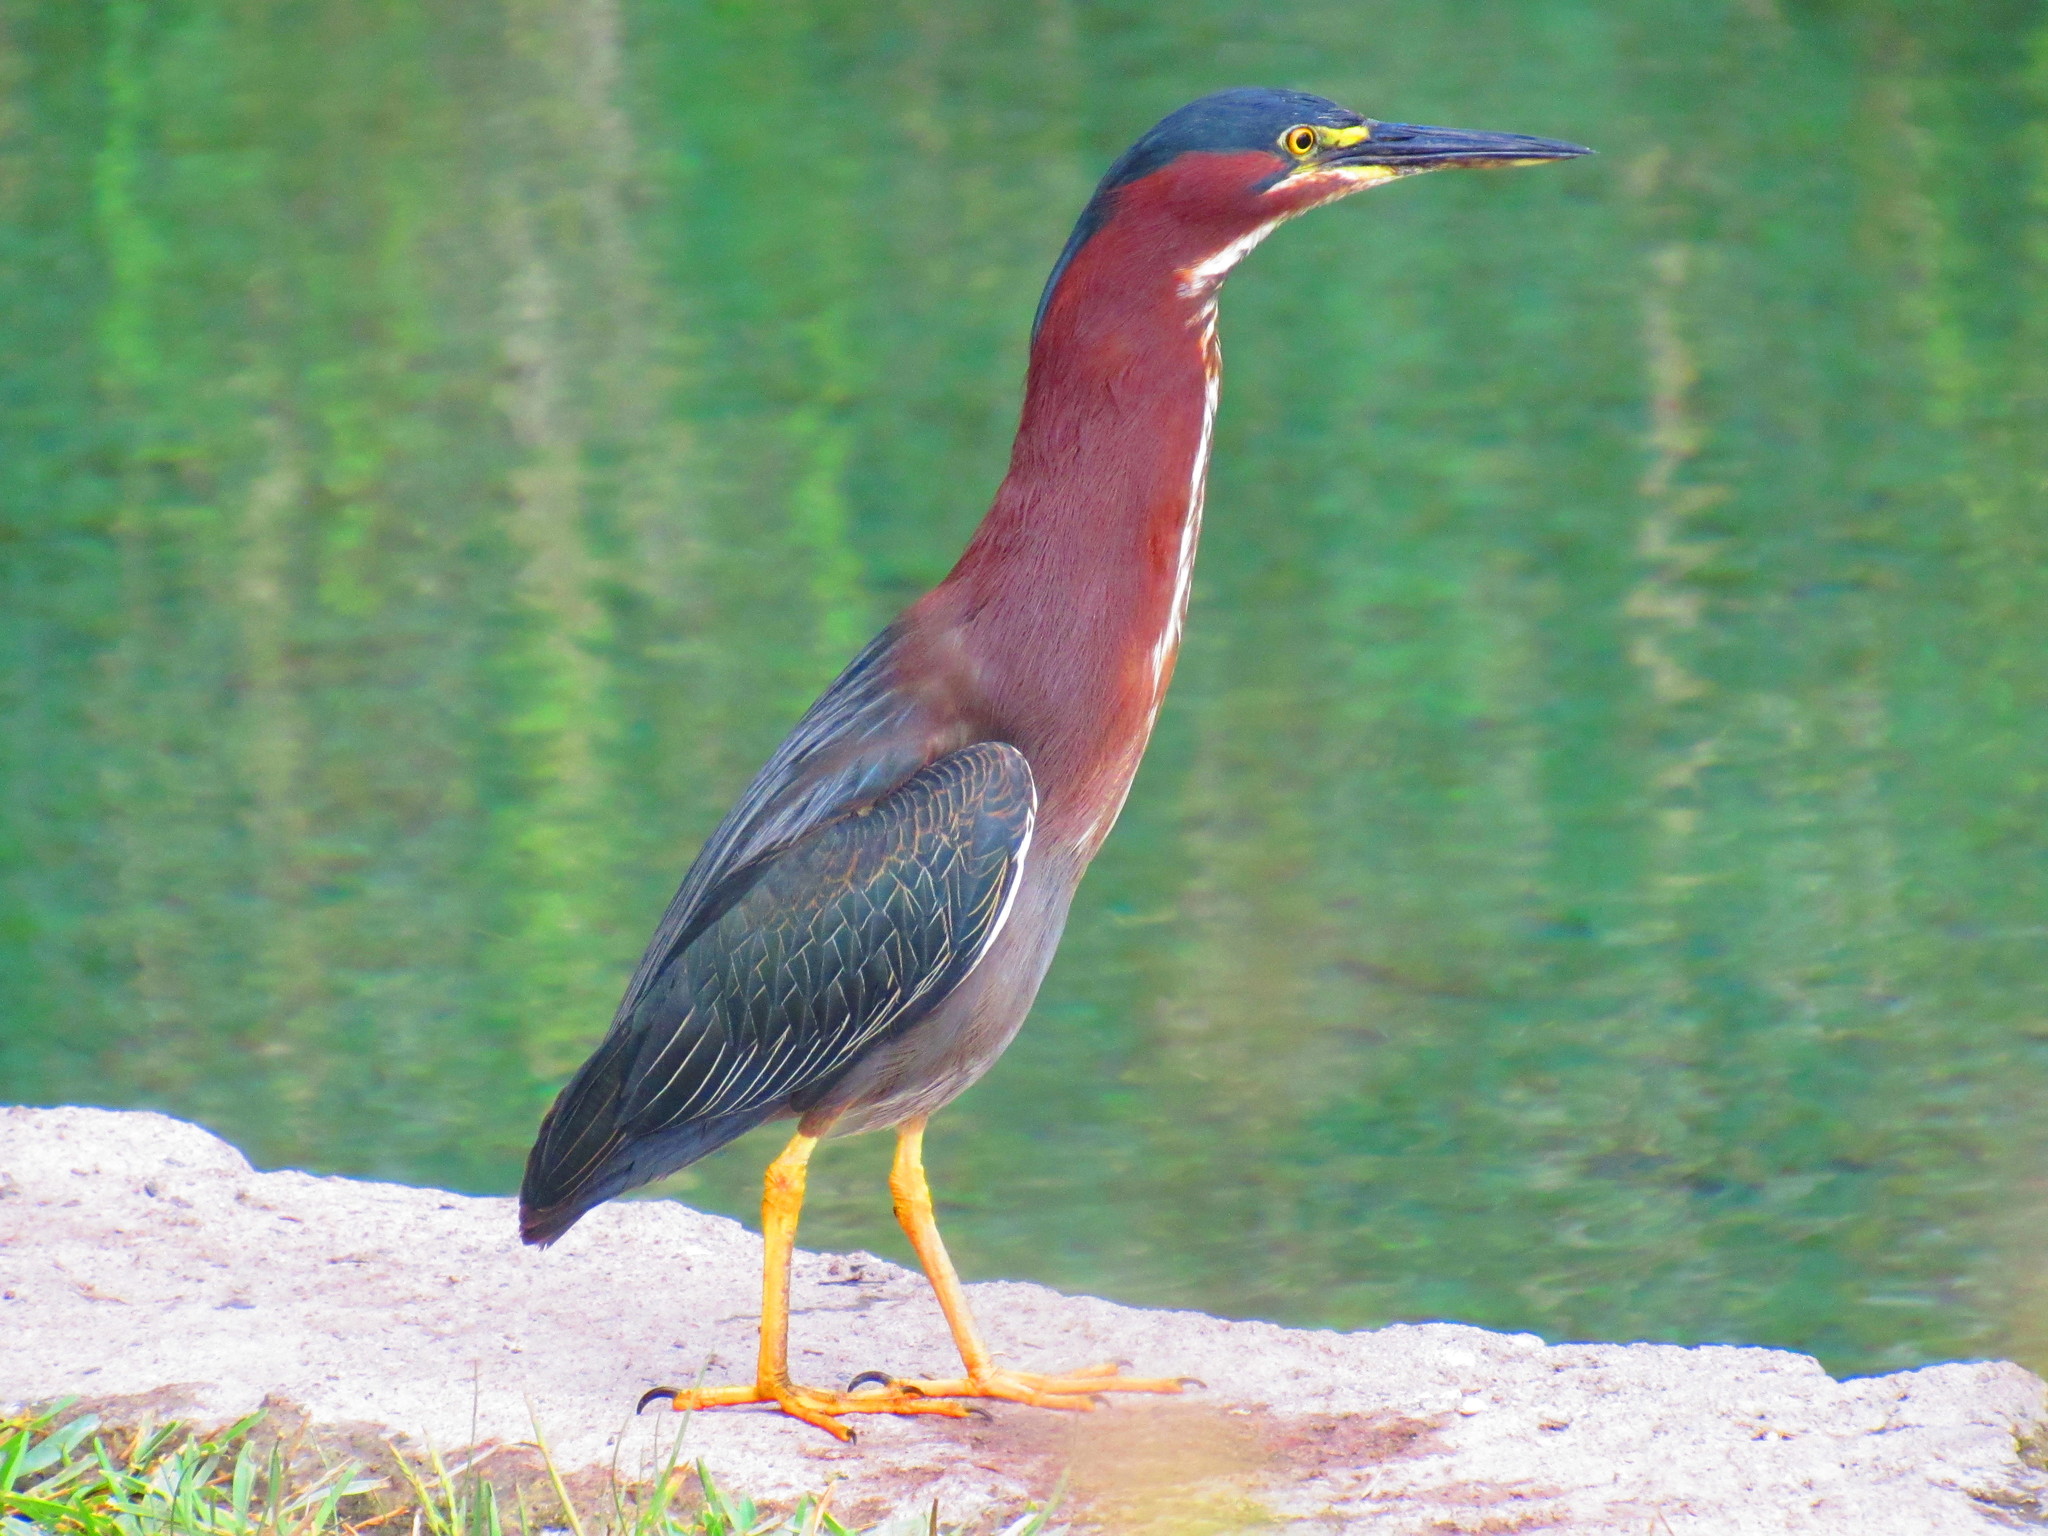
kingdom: Animalia
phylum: Chordata
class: Aves
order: Pelecaniformes
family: Ardeidae
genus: Butorides
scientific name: Butorides virescens
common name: Green heron
